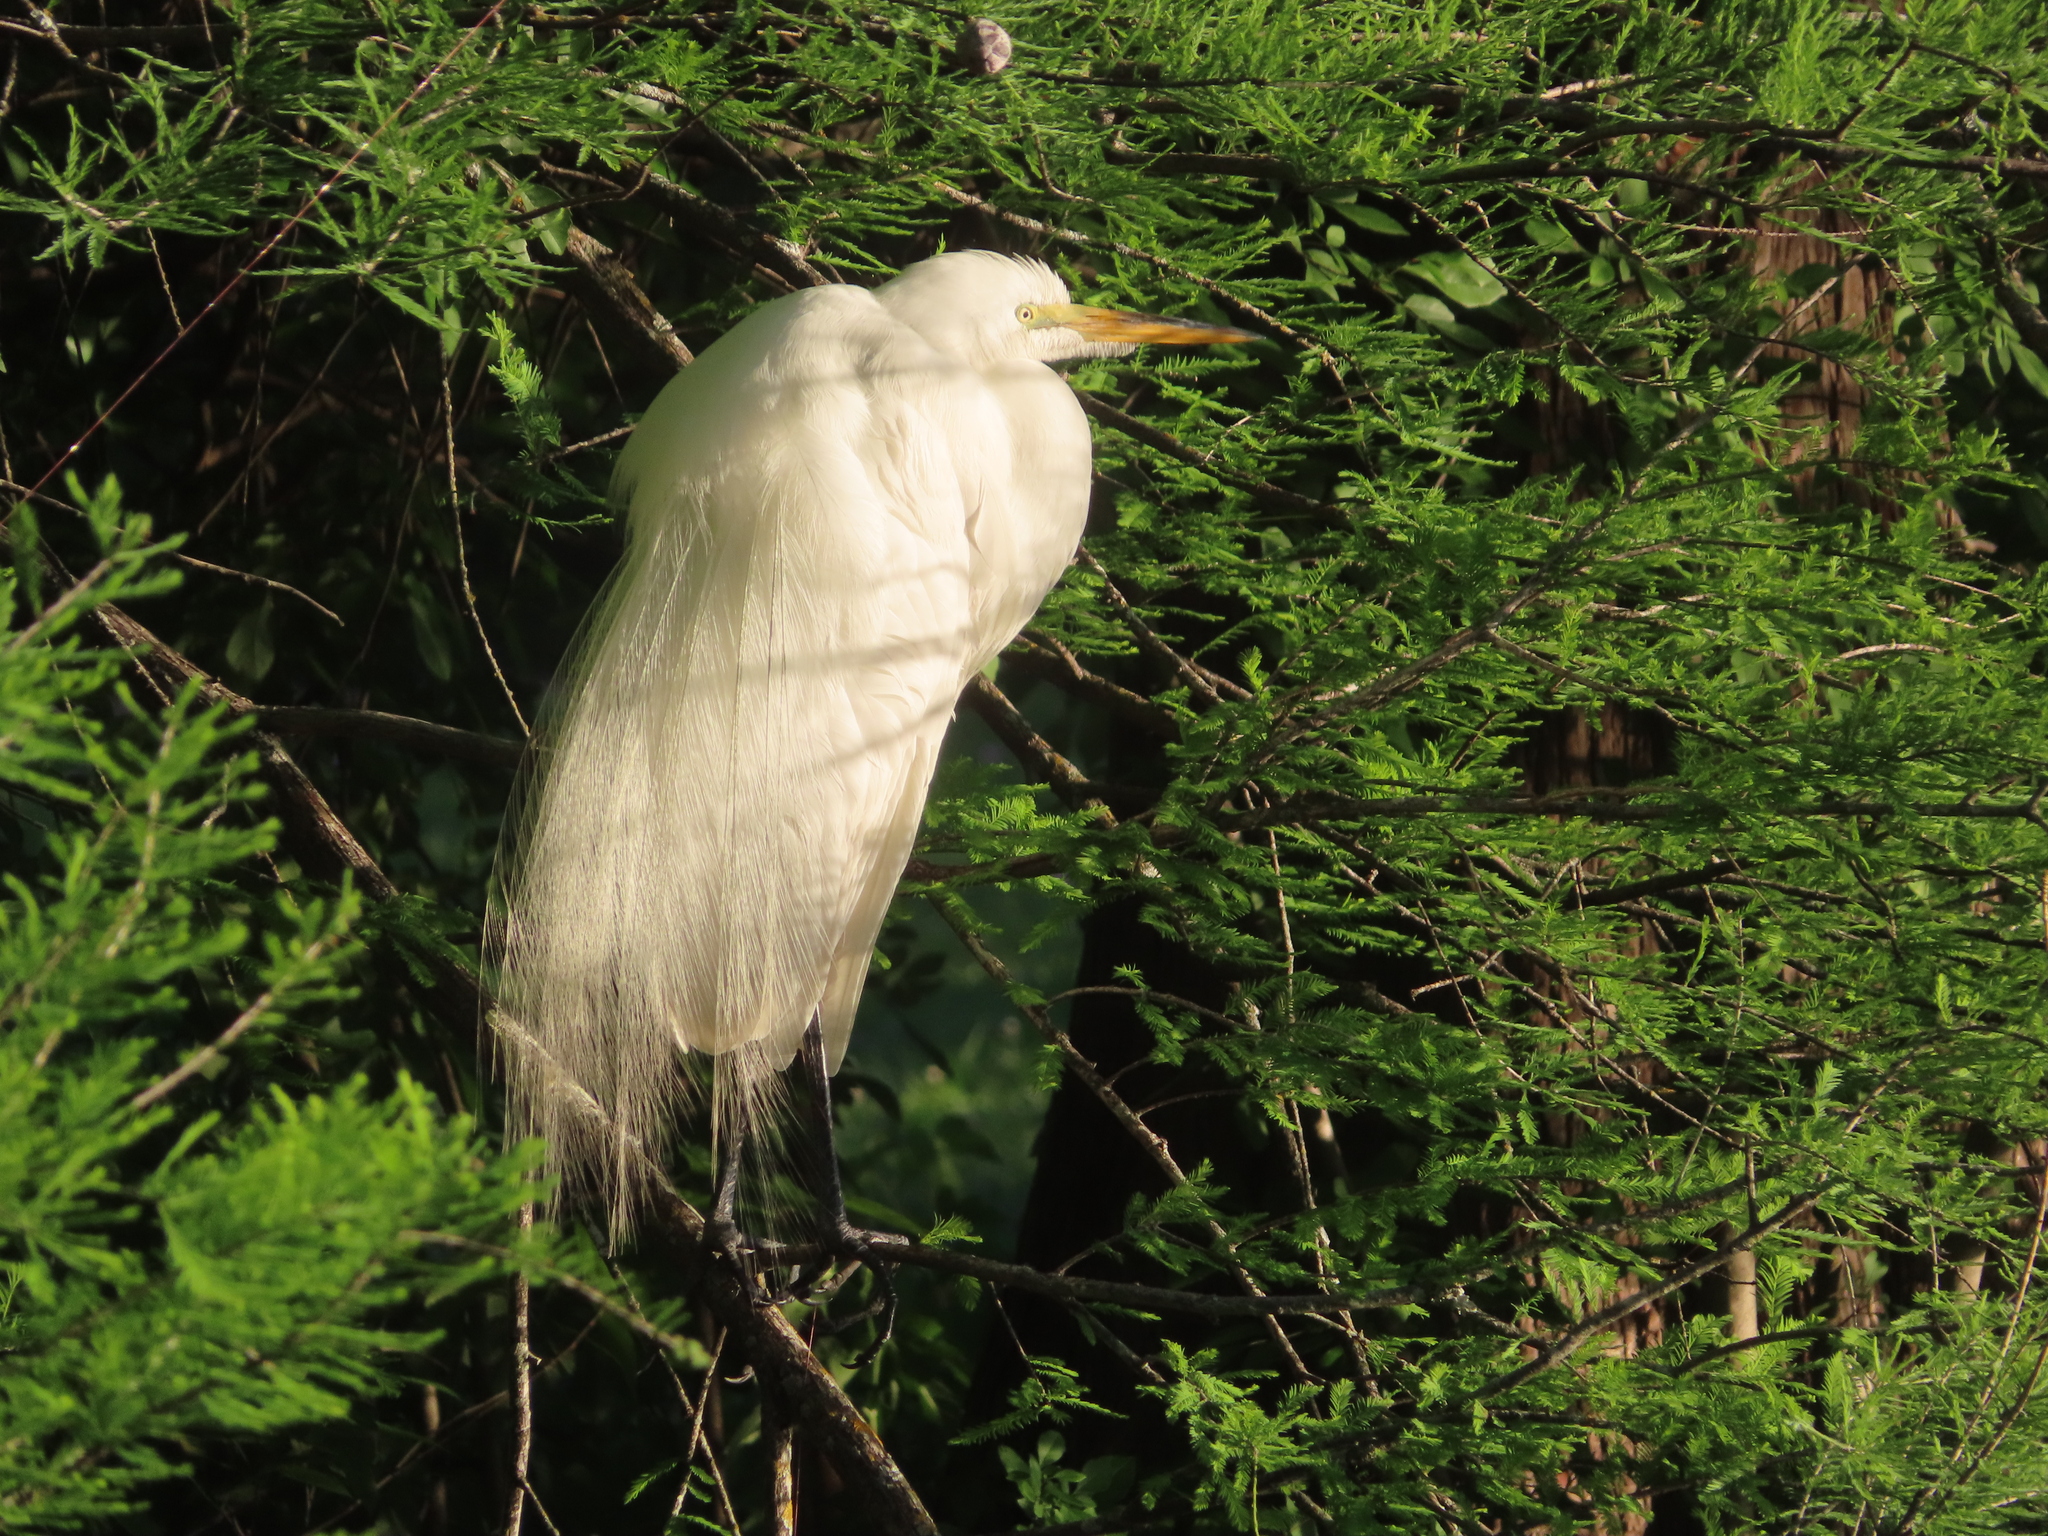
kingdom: Animalia
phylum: Chordata
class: Aves
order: Pelecaniformes
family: Ardeidae
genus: Ardea
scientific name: Ardea alba
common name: Great egret
